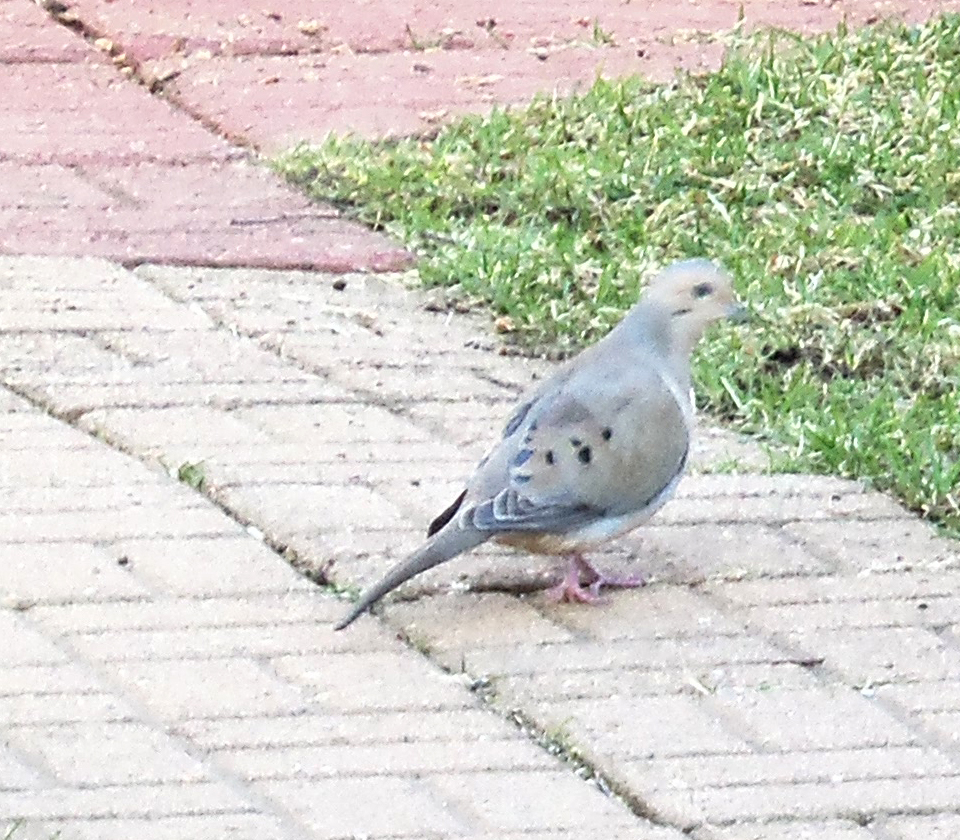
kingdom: Animalia
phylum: Chordata
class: Aves
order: Columbiformes
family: Columbidae
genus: Zenaida
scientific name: Zenaida macroura
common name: Mourning dove
